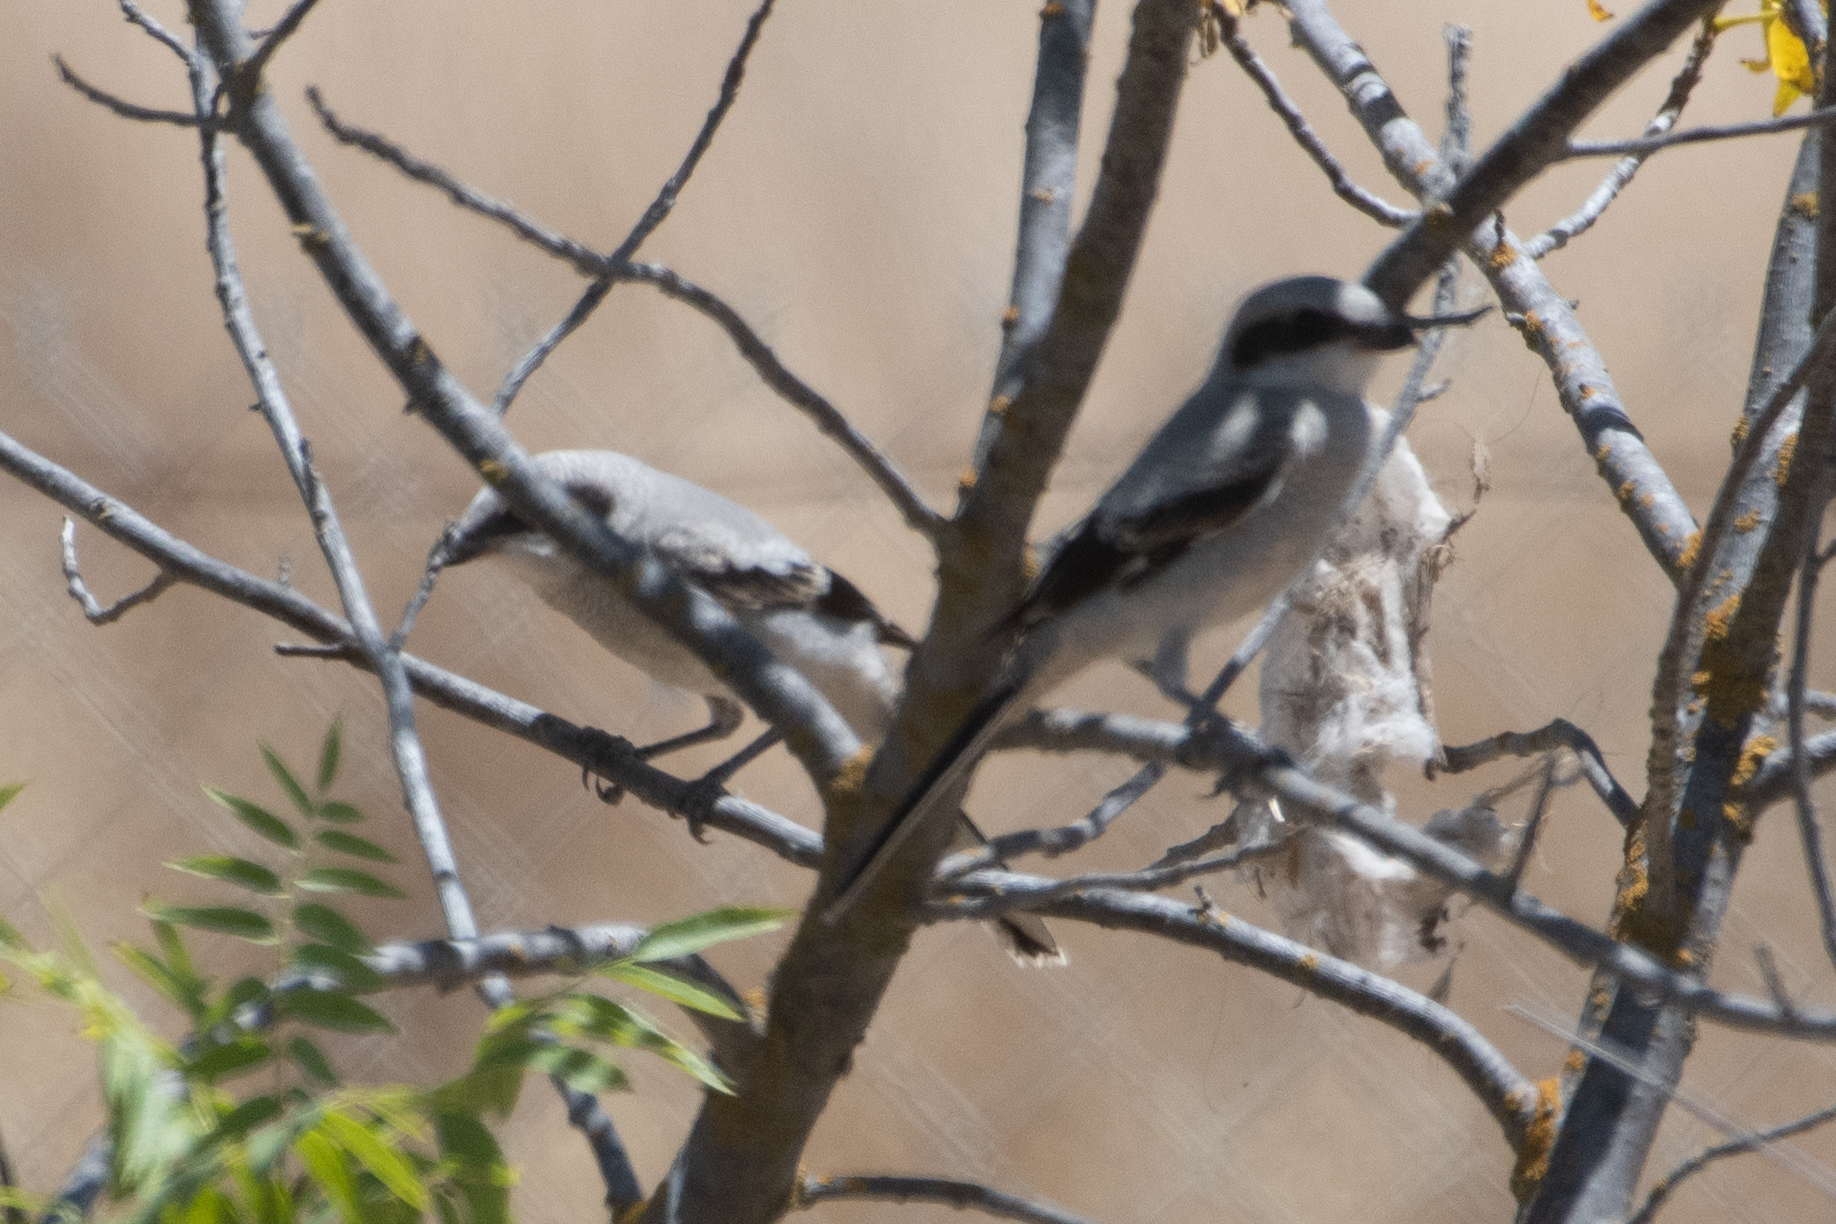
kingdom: Animalia
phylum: Chordata
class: Aves
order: Passeriformes
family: Laniidae
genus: Lanius
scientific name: Lanius ludovicianus
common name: Loggerhead shrike
